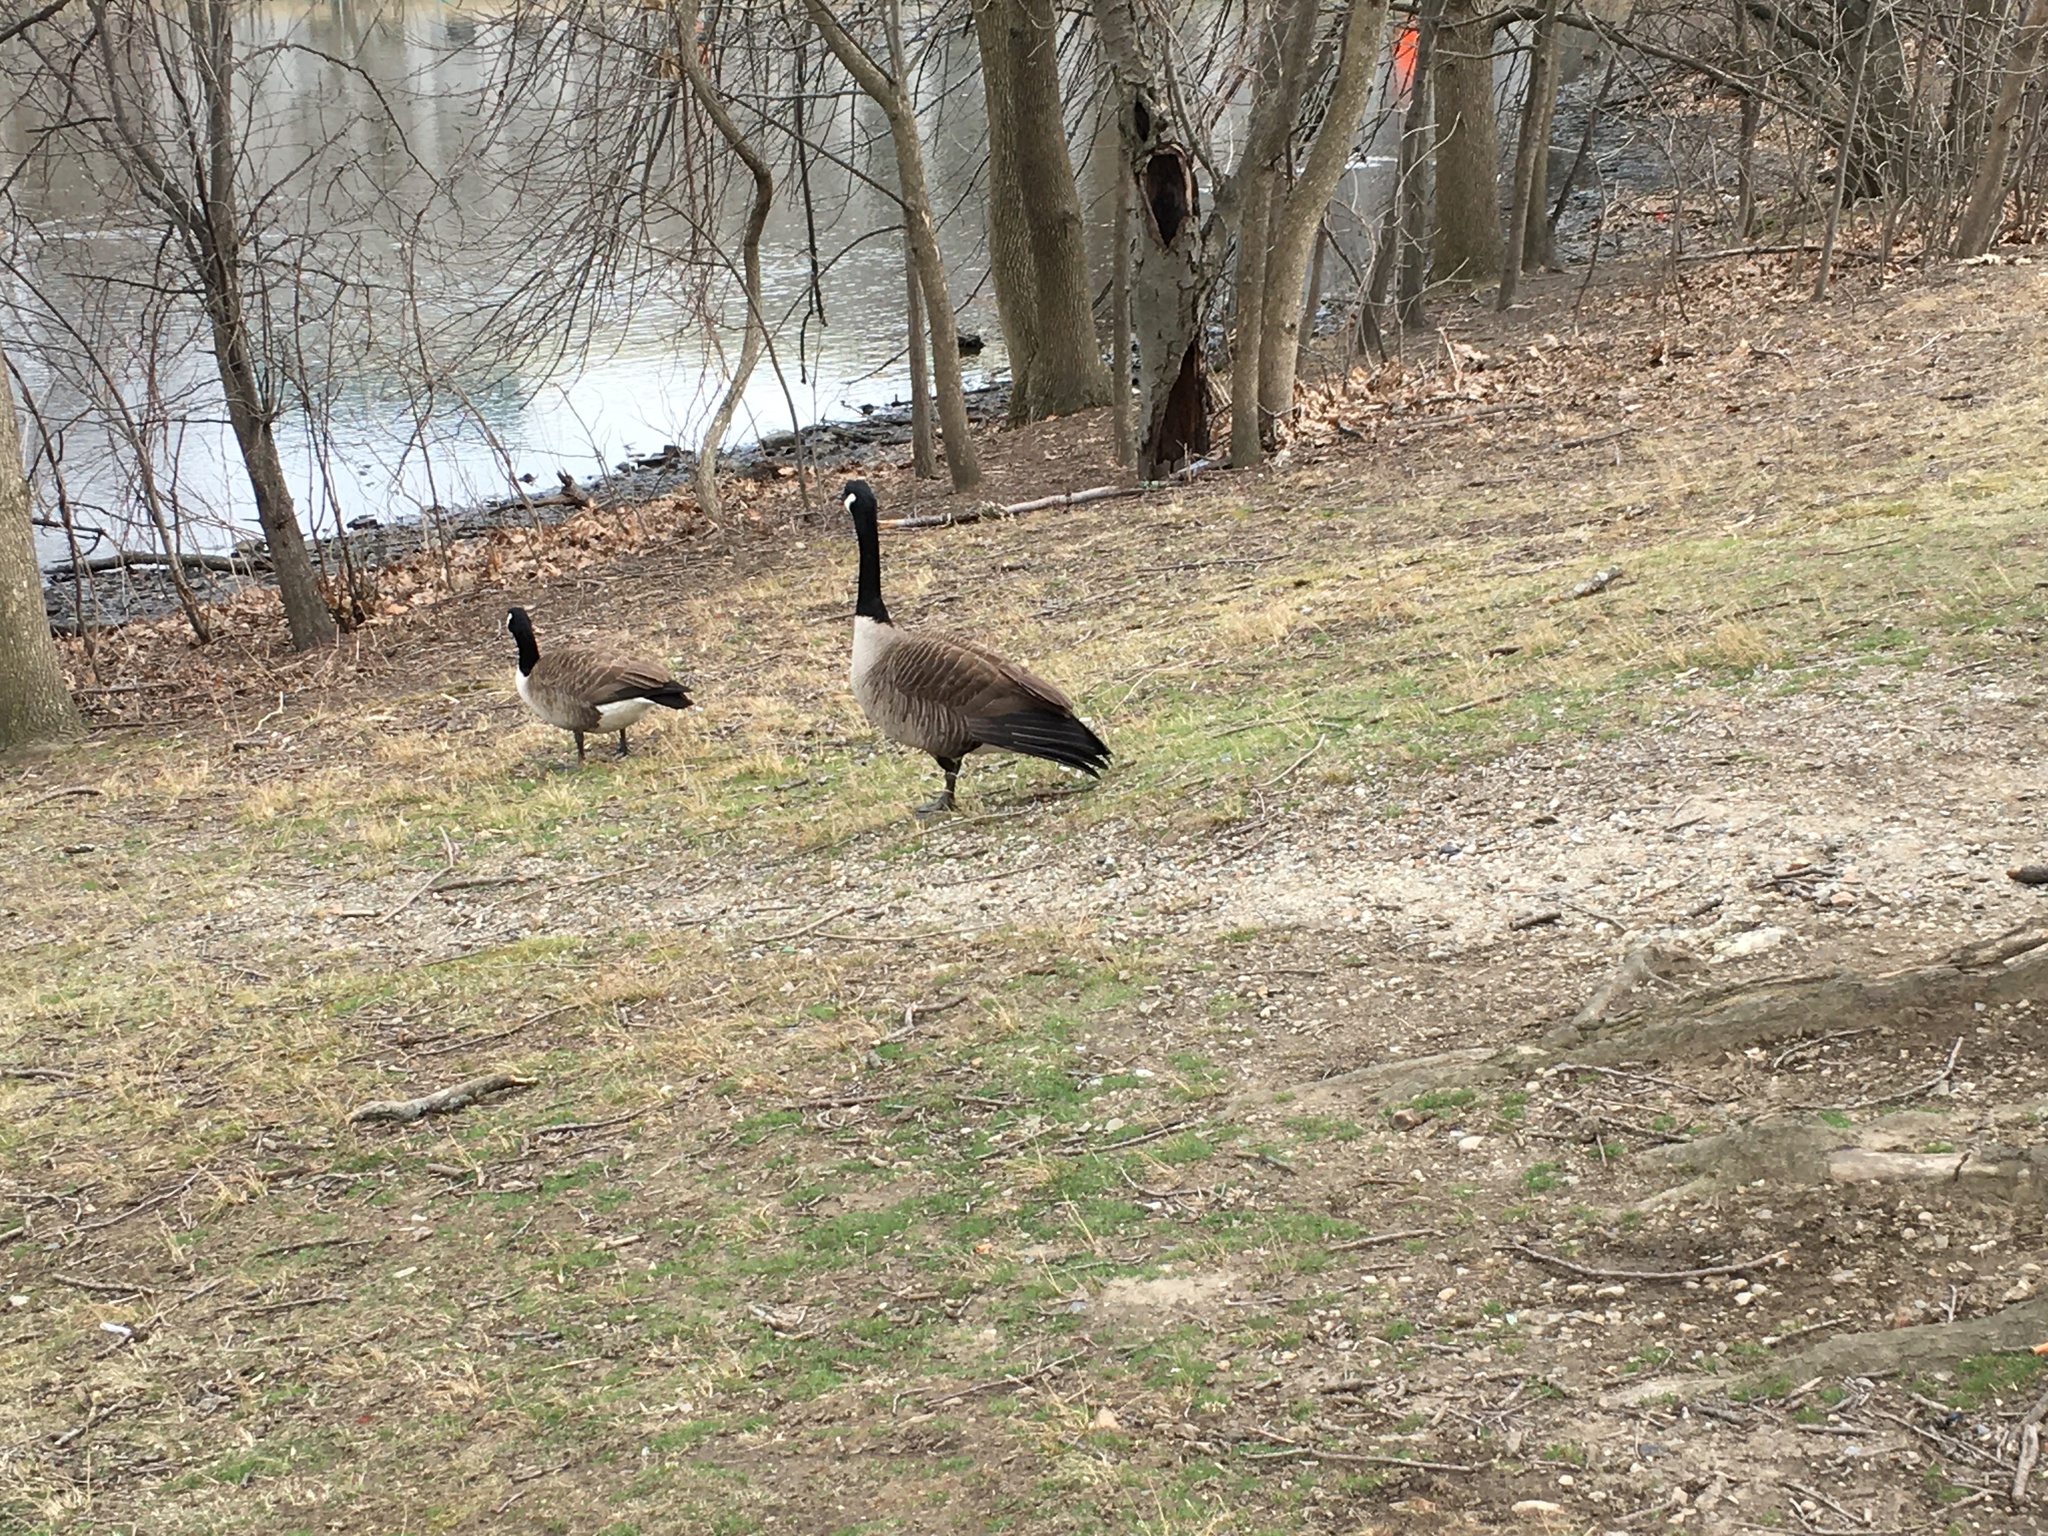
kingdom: Animalia
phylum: Chordata
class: Aves
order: Anseriformes
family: Anatidae
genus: Branta
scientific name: Branta canadensis
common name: Canada goose
